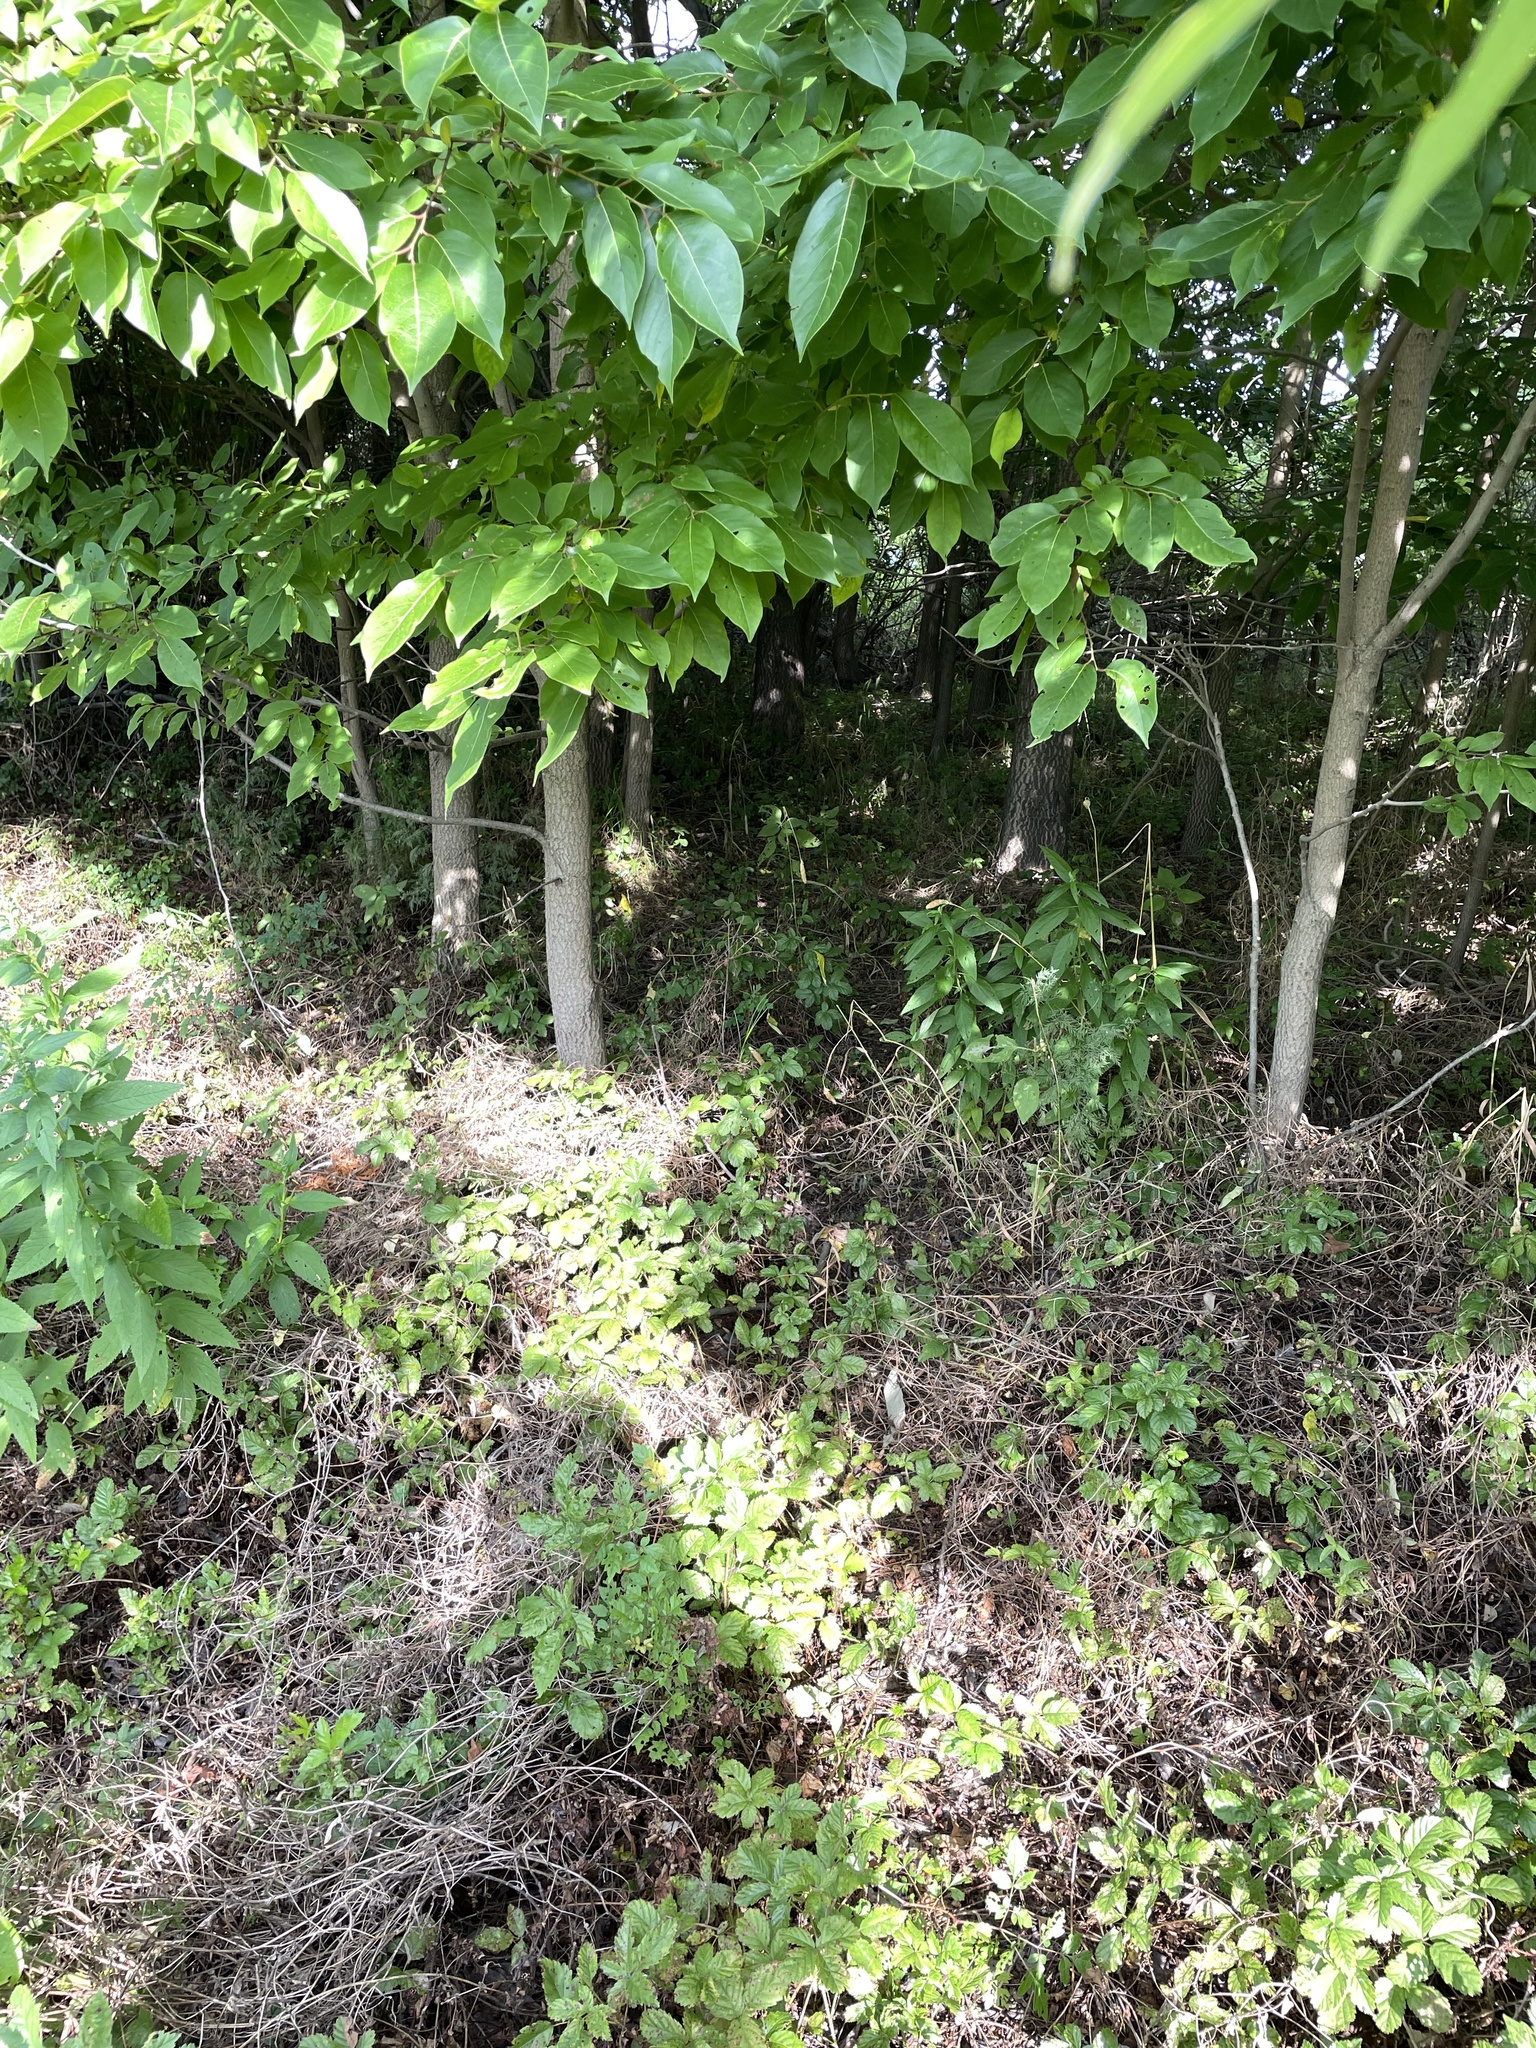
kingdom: Plantae
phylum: Tracheophyta
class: Magnoliopsida
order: Ericales
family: Ebenaceae
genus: Diospyros
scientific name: Diospyros virginiana
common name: Persimmon
